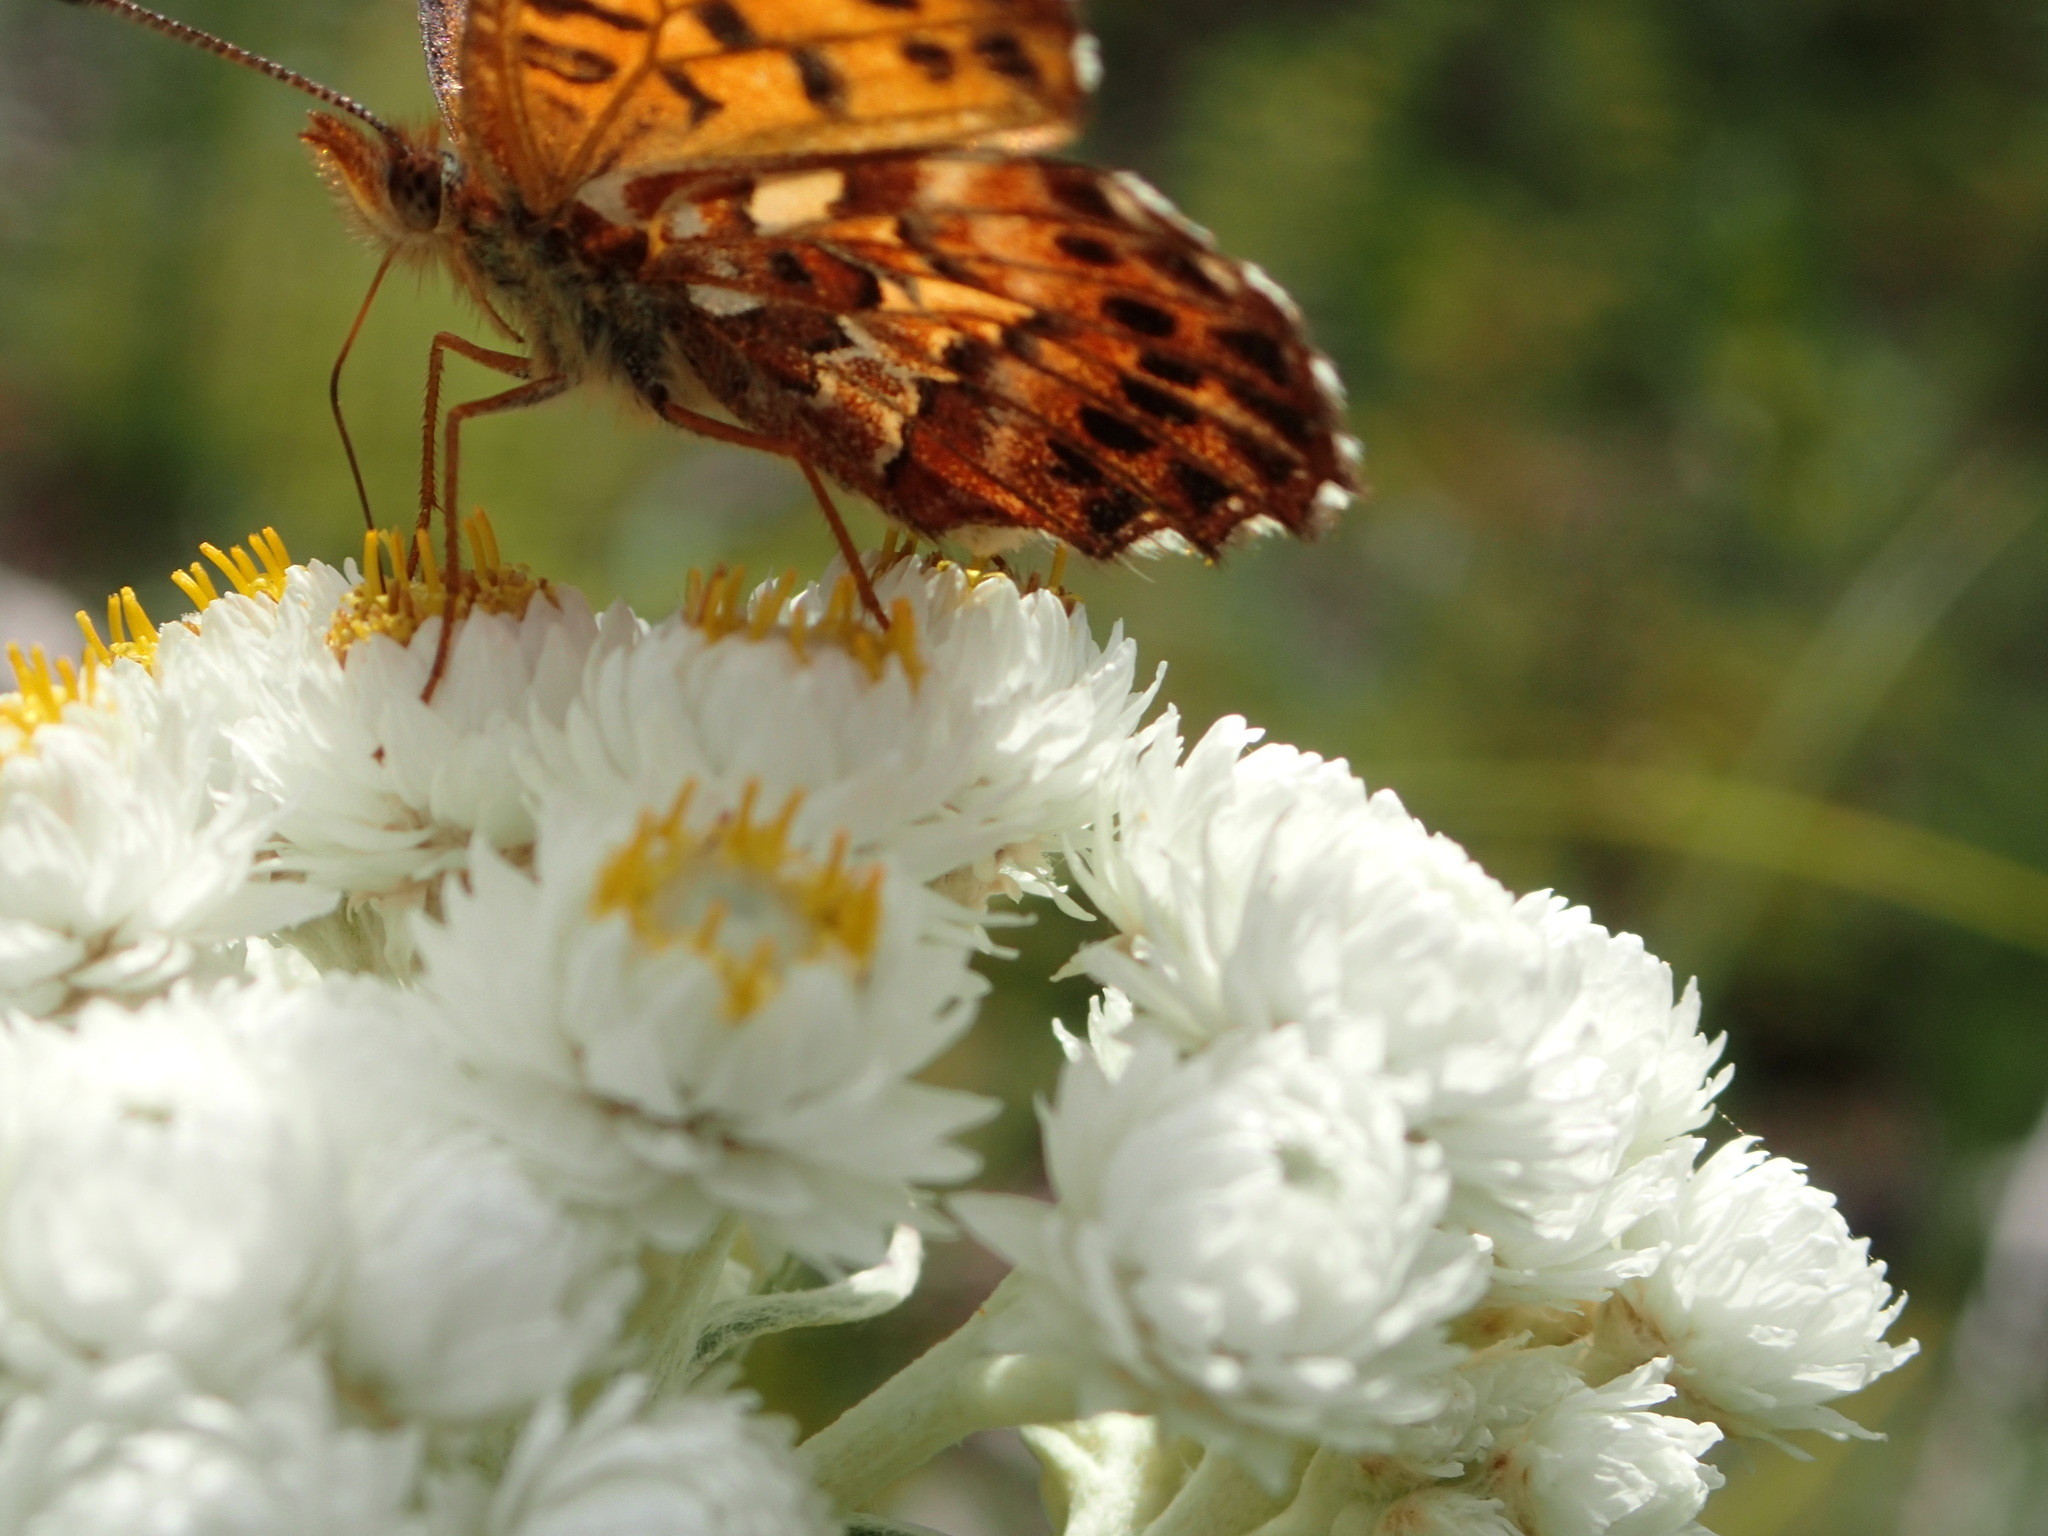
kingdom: Animalia
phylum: Arthropoda
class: Insecta
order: Lepidoptera
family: Nymphalidae
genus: Boloria
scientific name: Boloria chariclea
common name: Arctic fritillary
